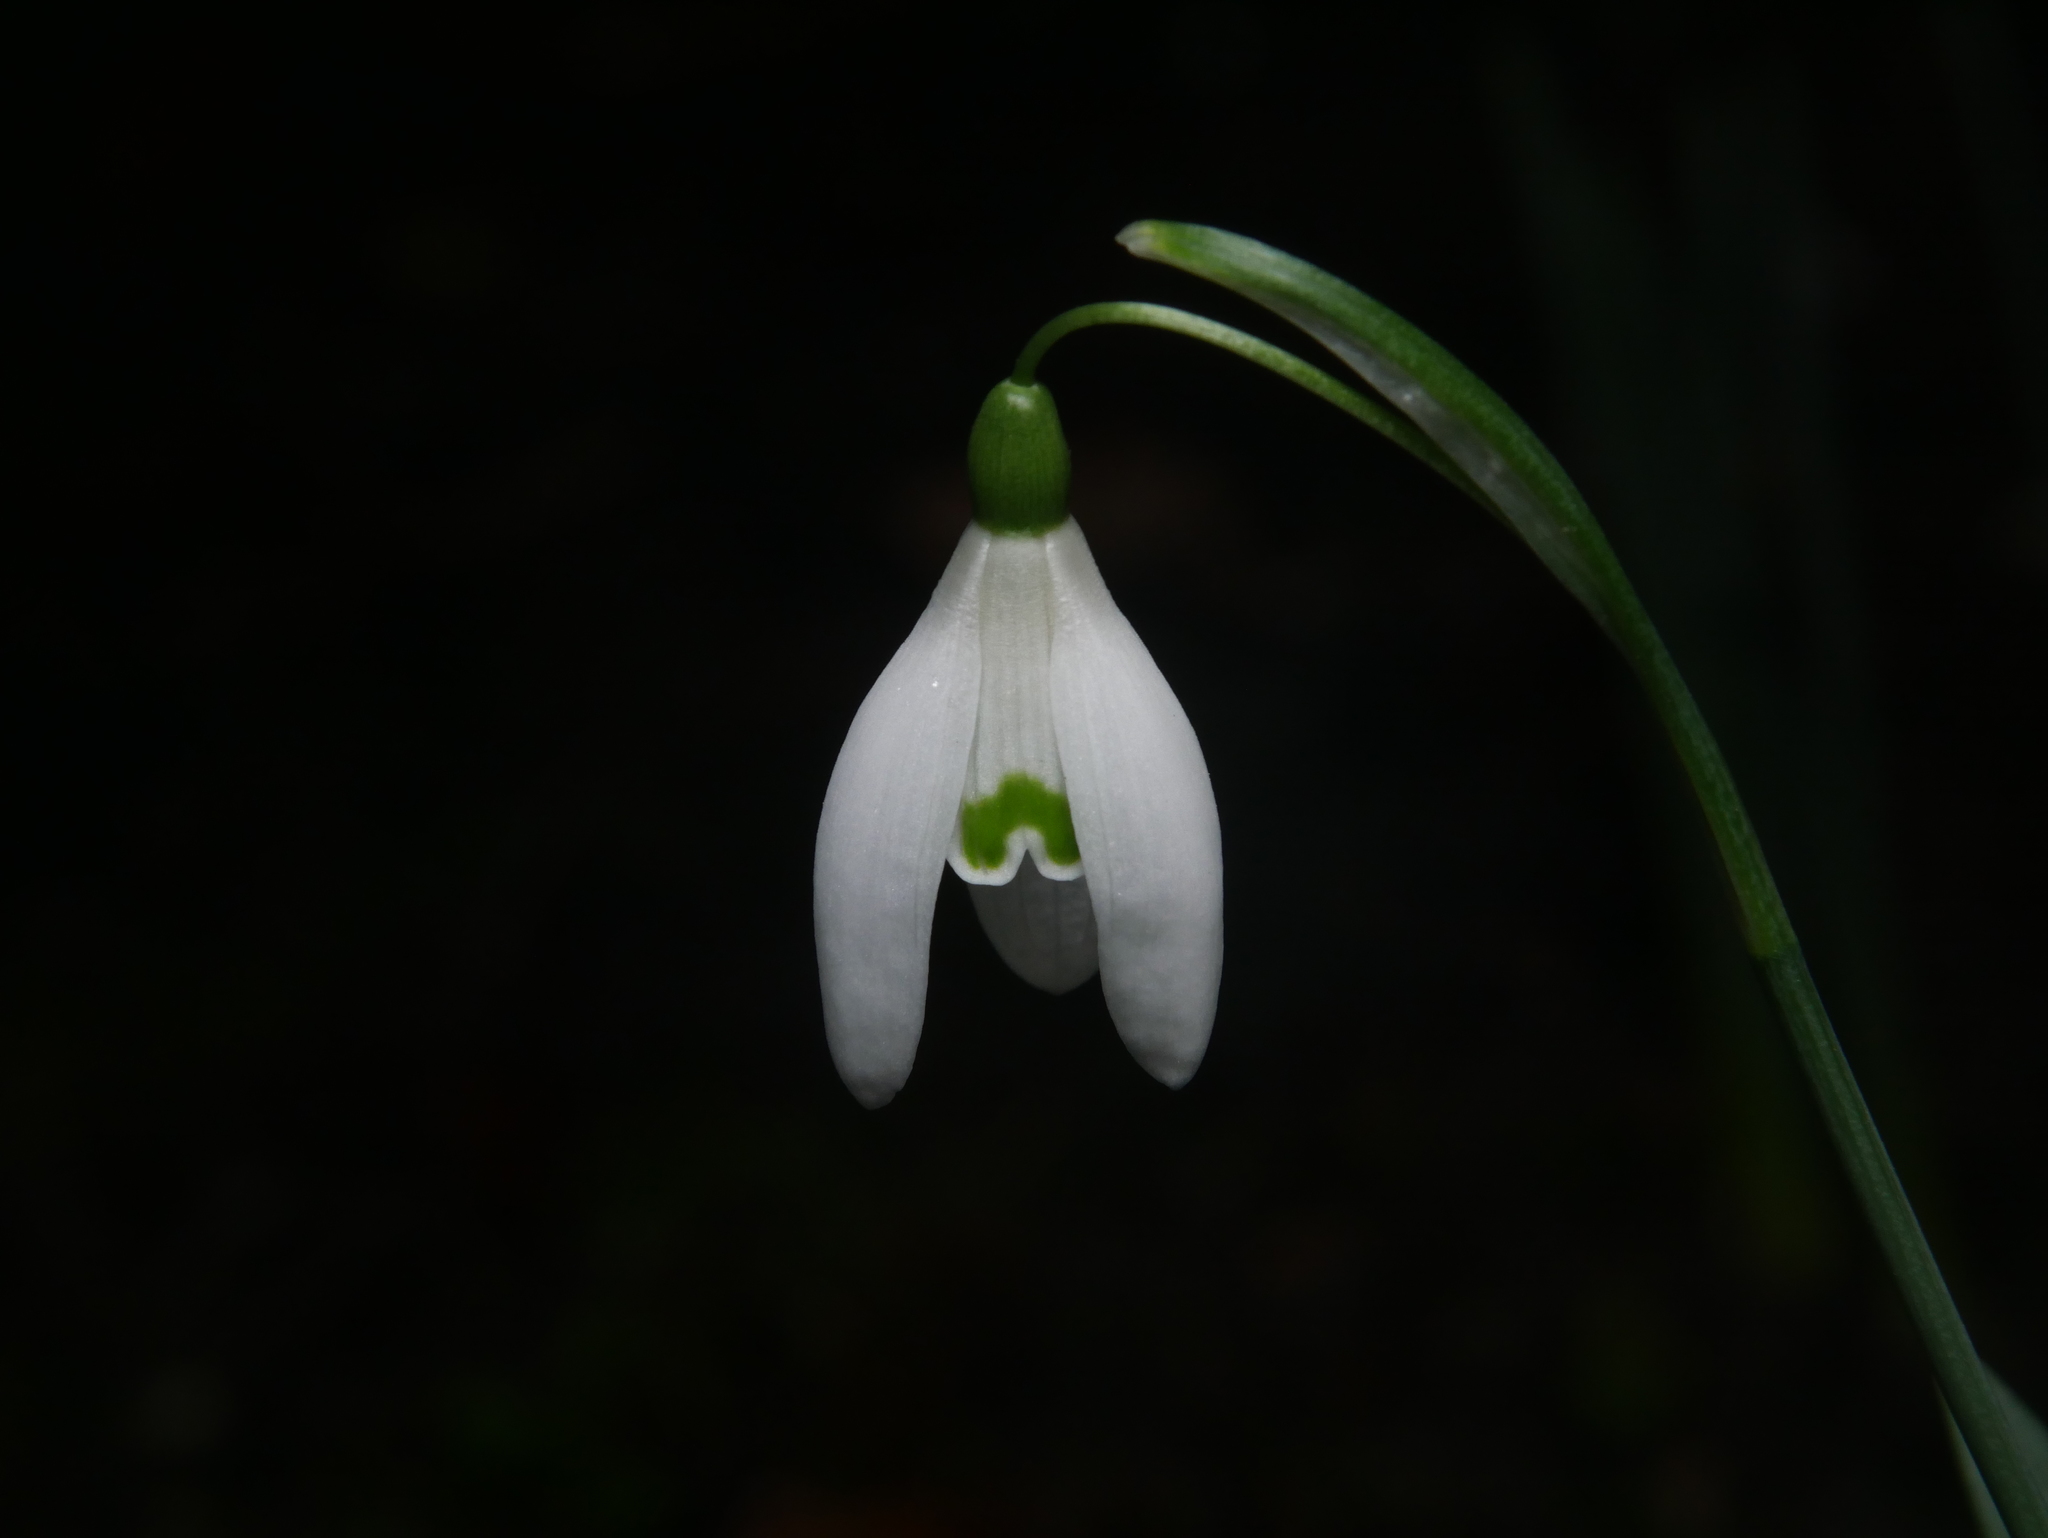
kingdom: Plantae
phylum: Tracheophyta
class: Liliopsida
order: Asparagales
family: Amaryllidaceae
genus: Galanthus
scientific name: Galanthus nivalis
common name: Snowdrop
